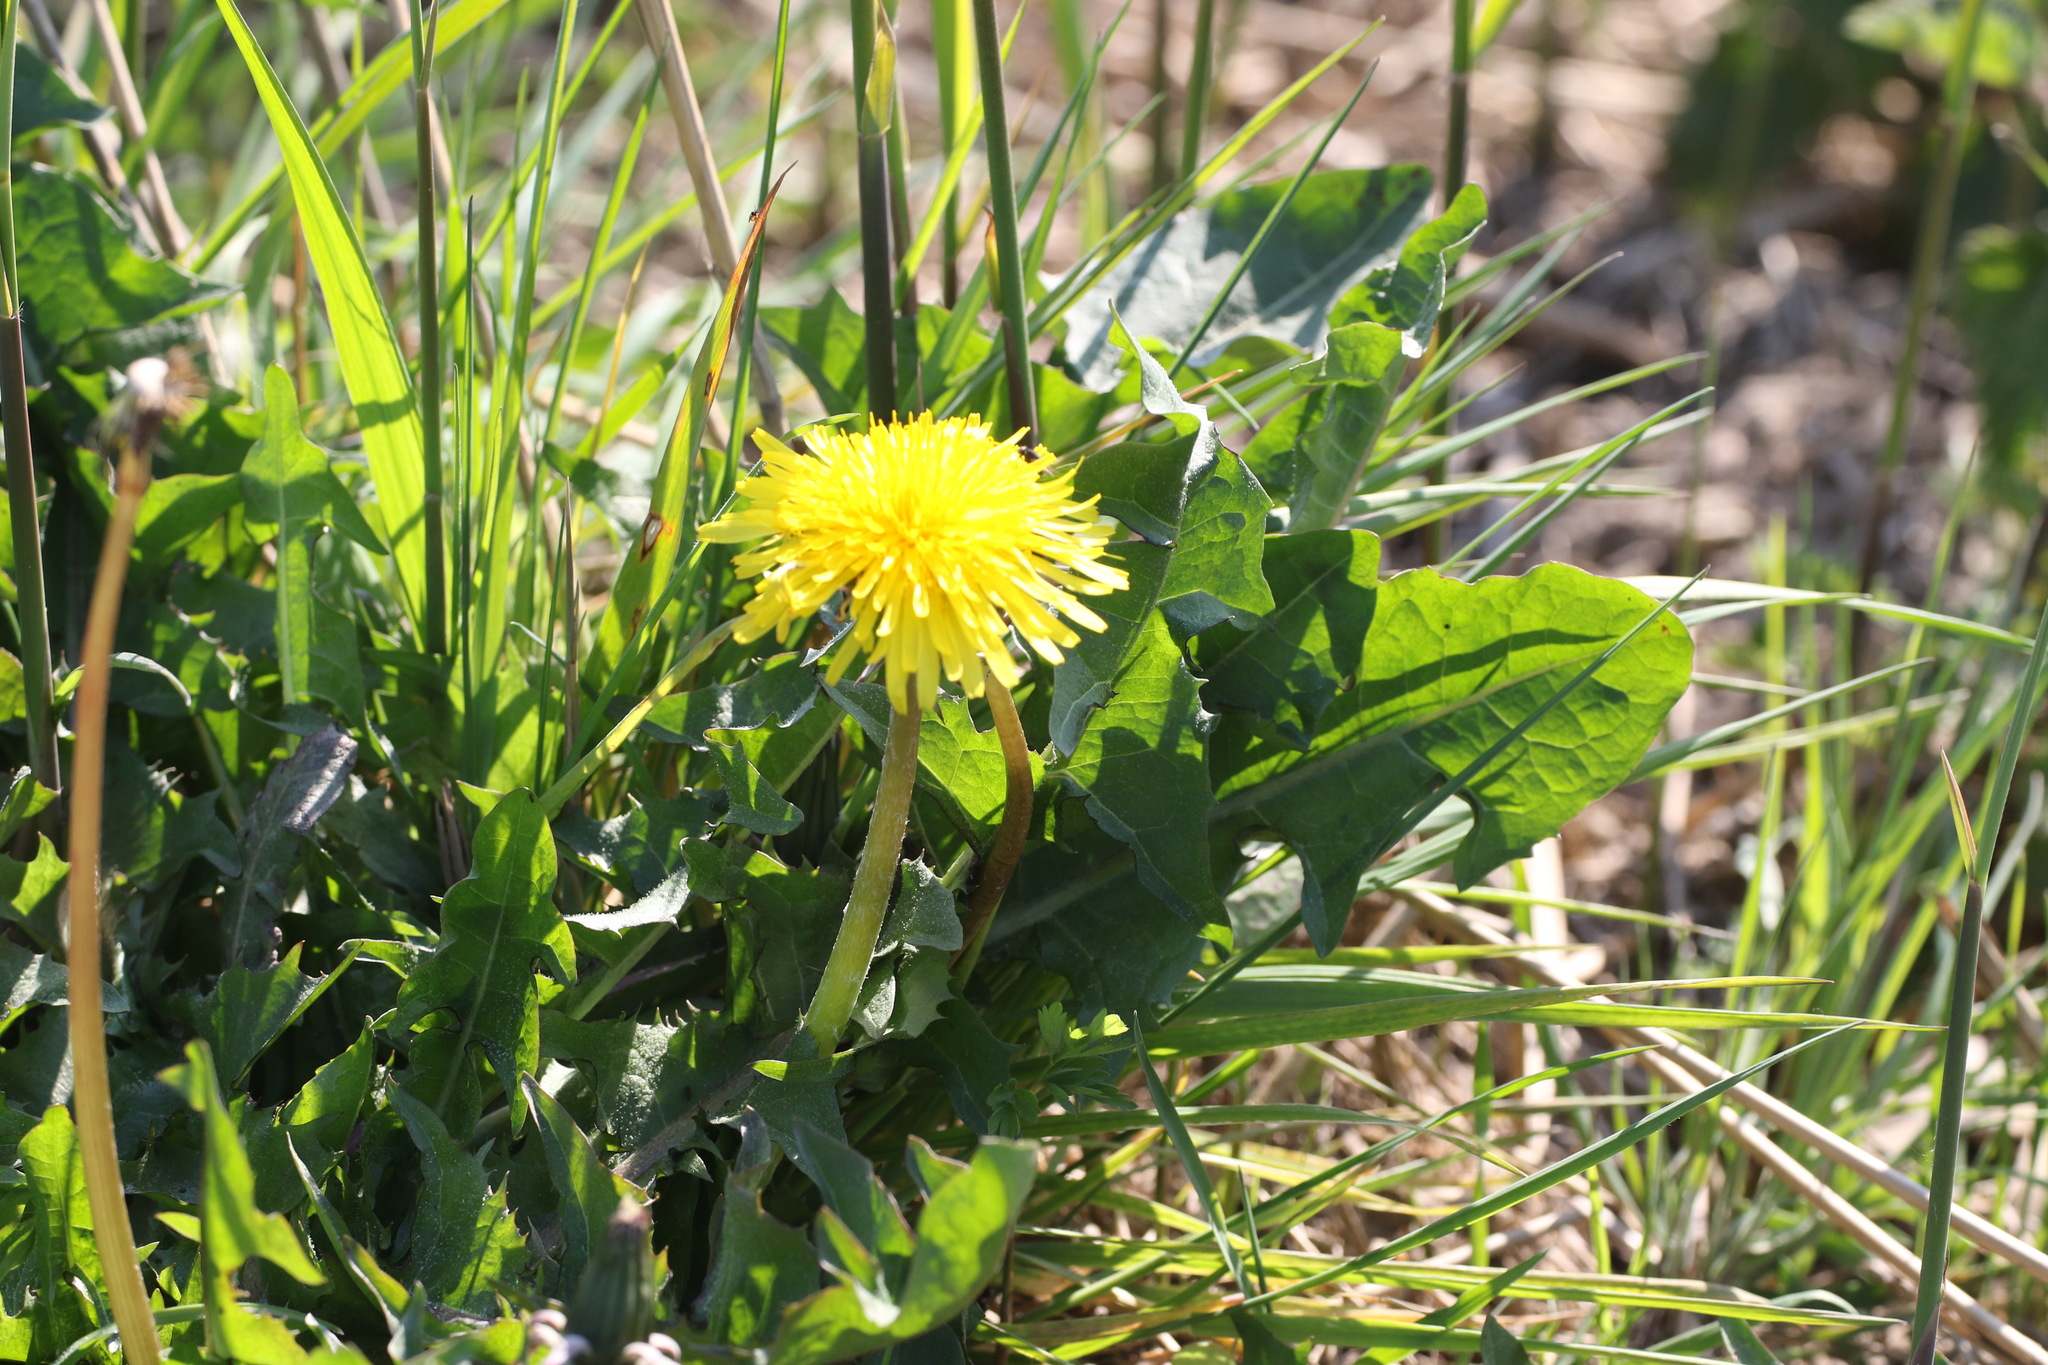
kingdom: Plantae
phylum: Tracheophyta
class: Magnoliopsida
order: Asterales
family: Asteraceae
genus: Taraxacum
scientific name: Taraxacum officinale
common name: Common dandelion
